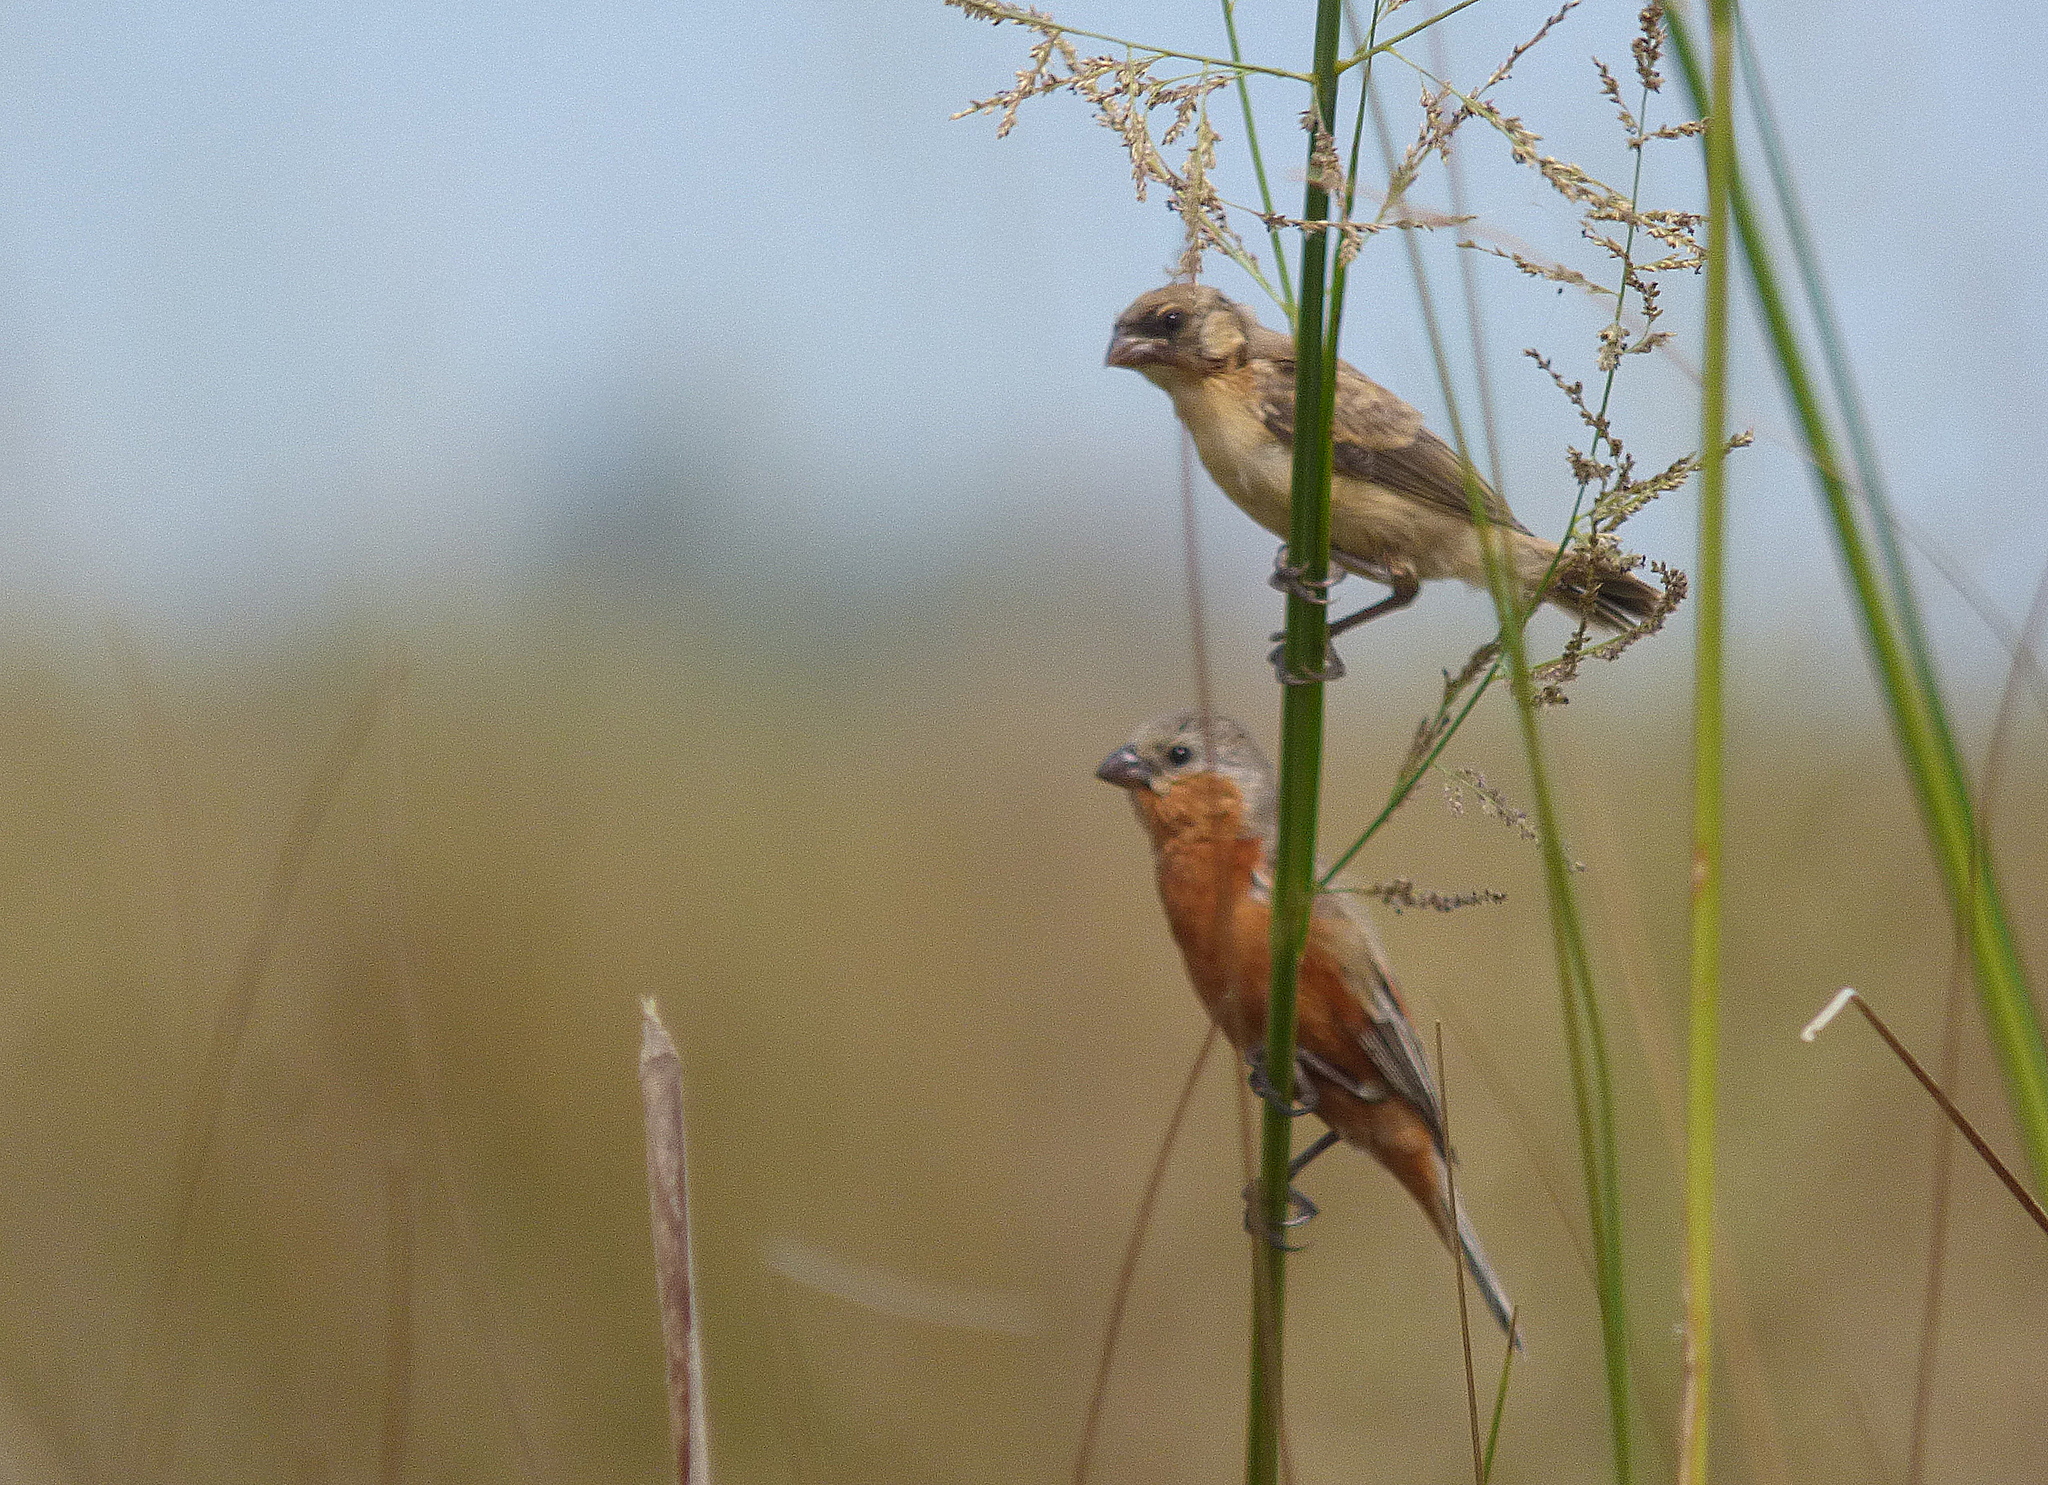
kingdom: Animalia
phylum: Chordata
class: Aves
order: Passeriformes
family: Thraupidae
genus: Sporophila
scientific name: Sporophila hypoxantha
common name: Tawny-bellied seedeater
